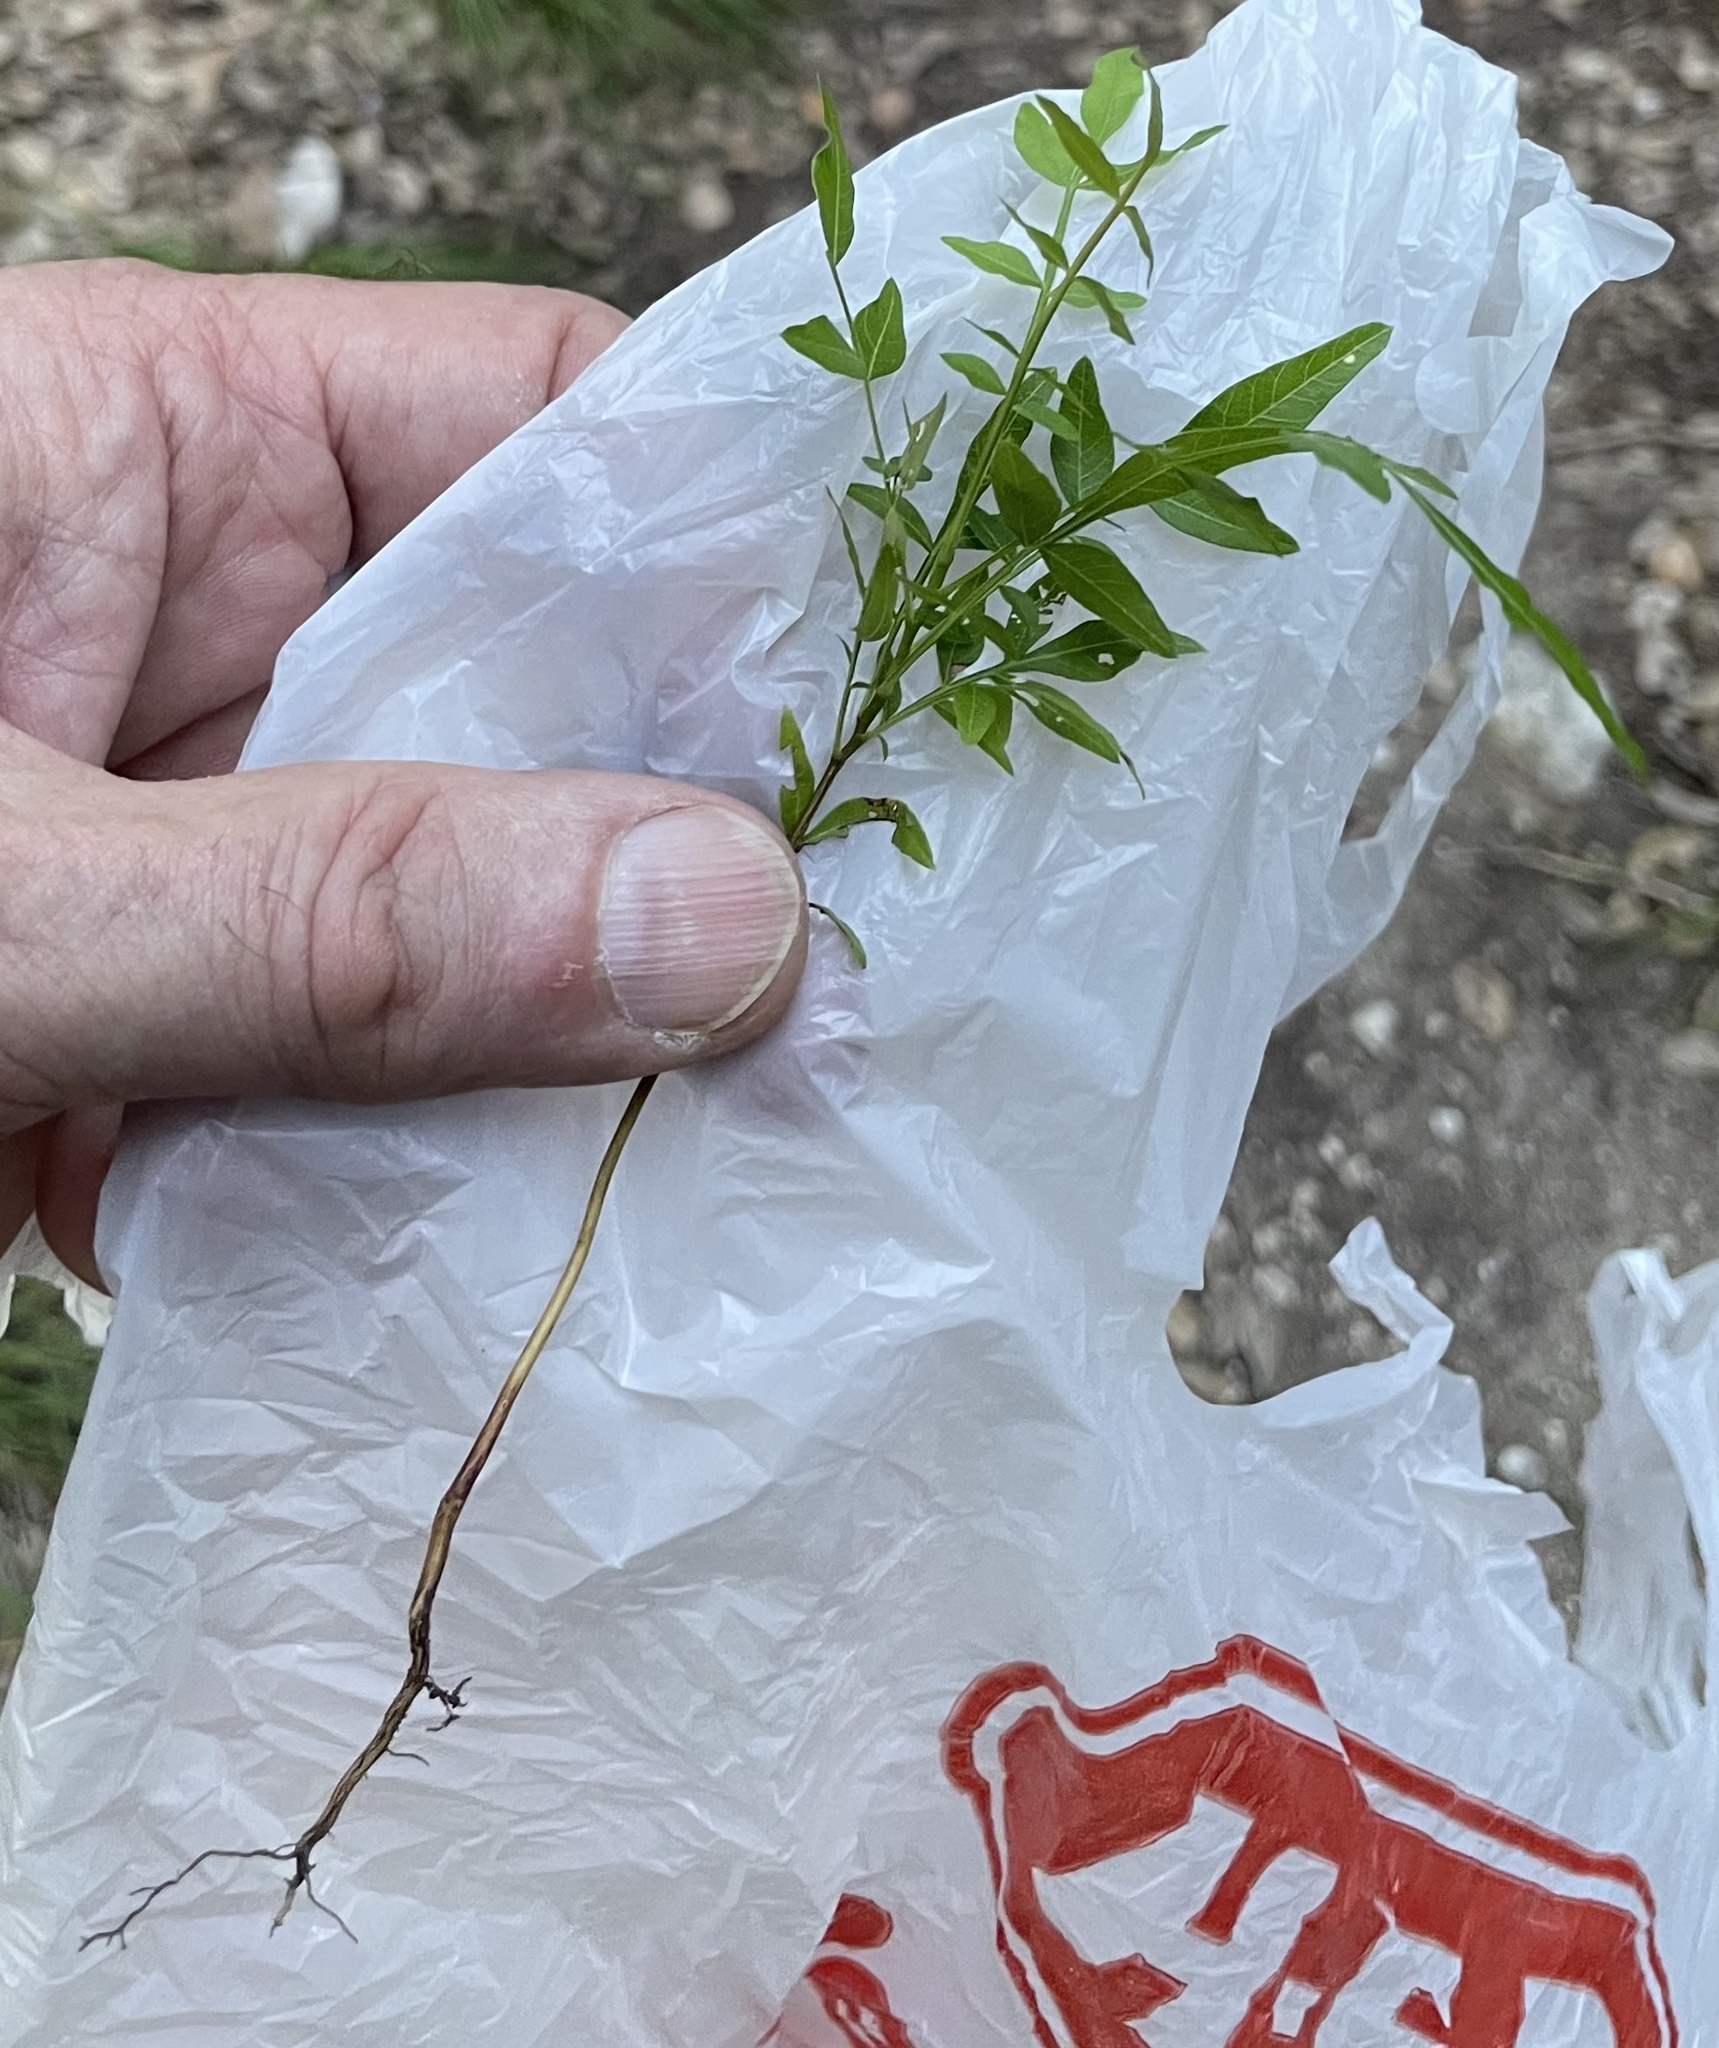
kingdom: Plantae
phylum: Tracheophyta
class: Magnoliopsida
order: Sapindales
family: Anacardiaceae
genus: Pistacia
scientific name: Pistacia chinensis
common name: Chinese pistache
